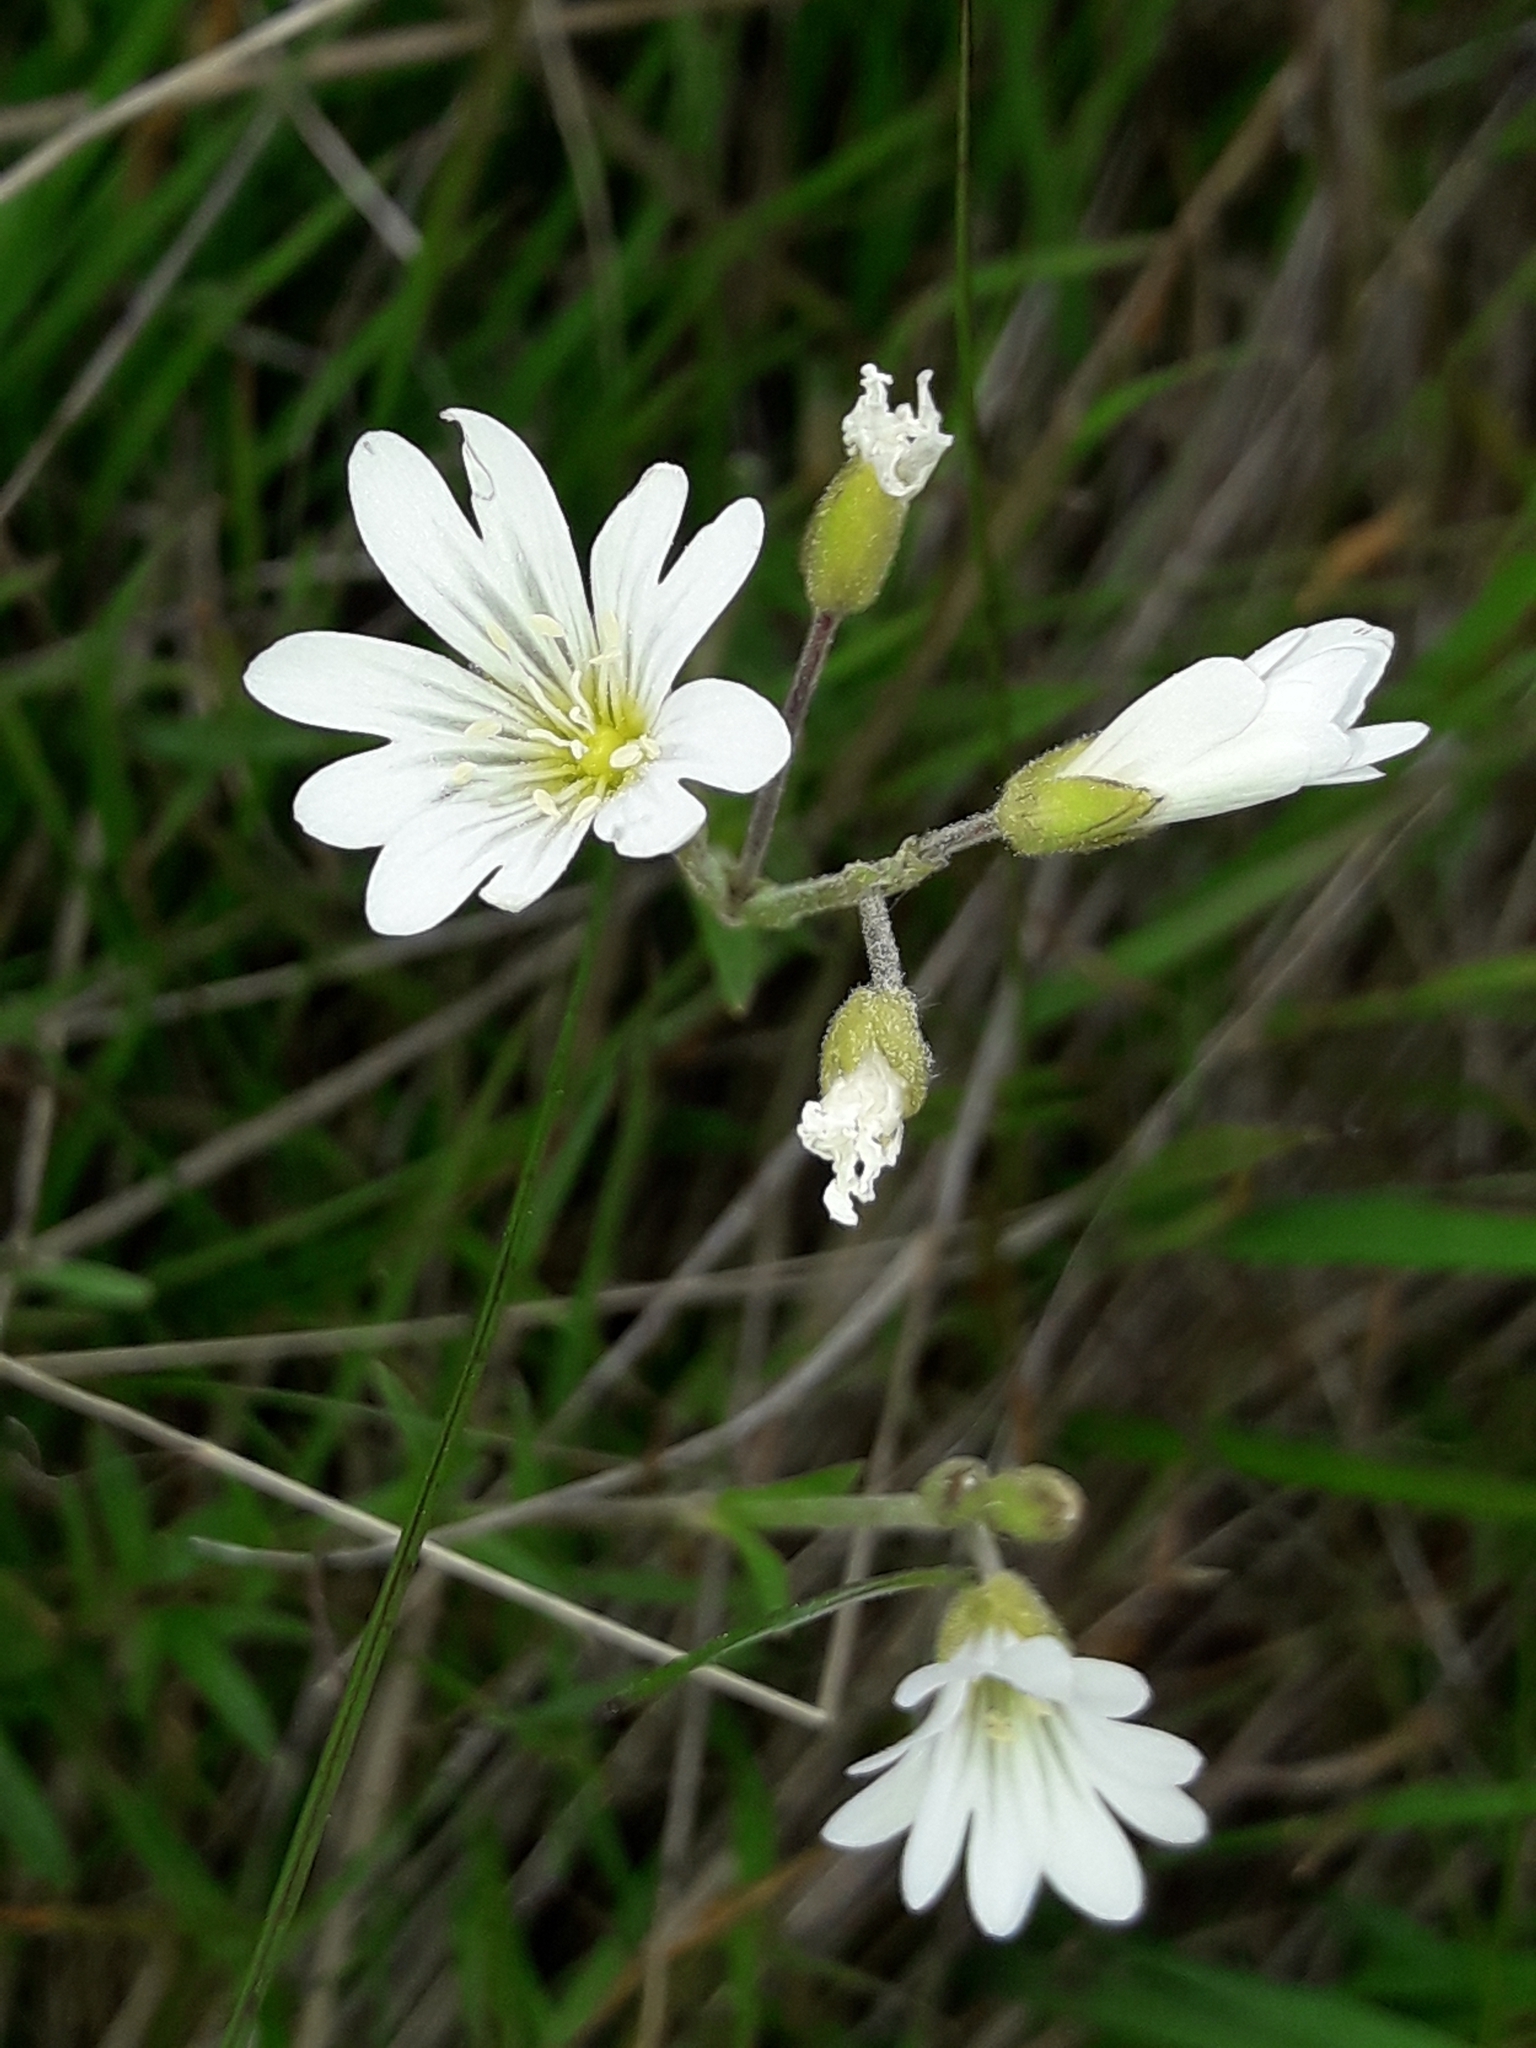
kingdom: Plantae
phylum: Tracheophyta
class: Magnoliopsida
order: Caryophyllales
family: Caryophyllaceae
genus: Cerastium
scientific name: Cerastium arvense
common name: Field mouse-ear
